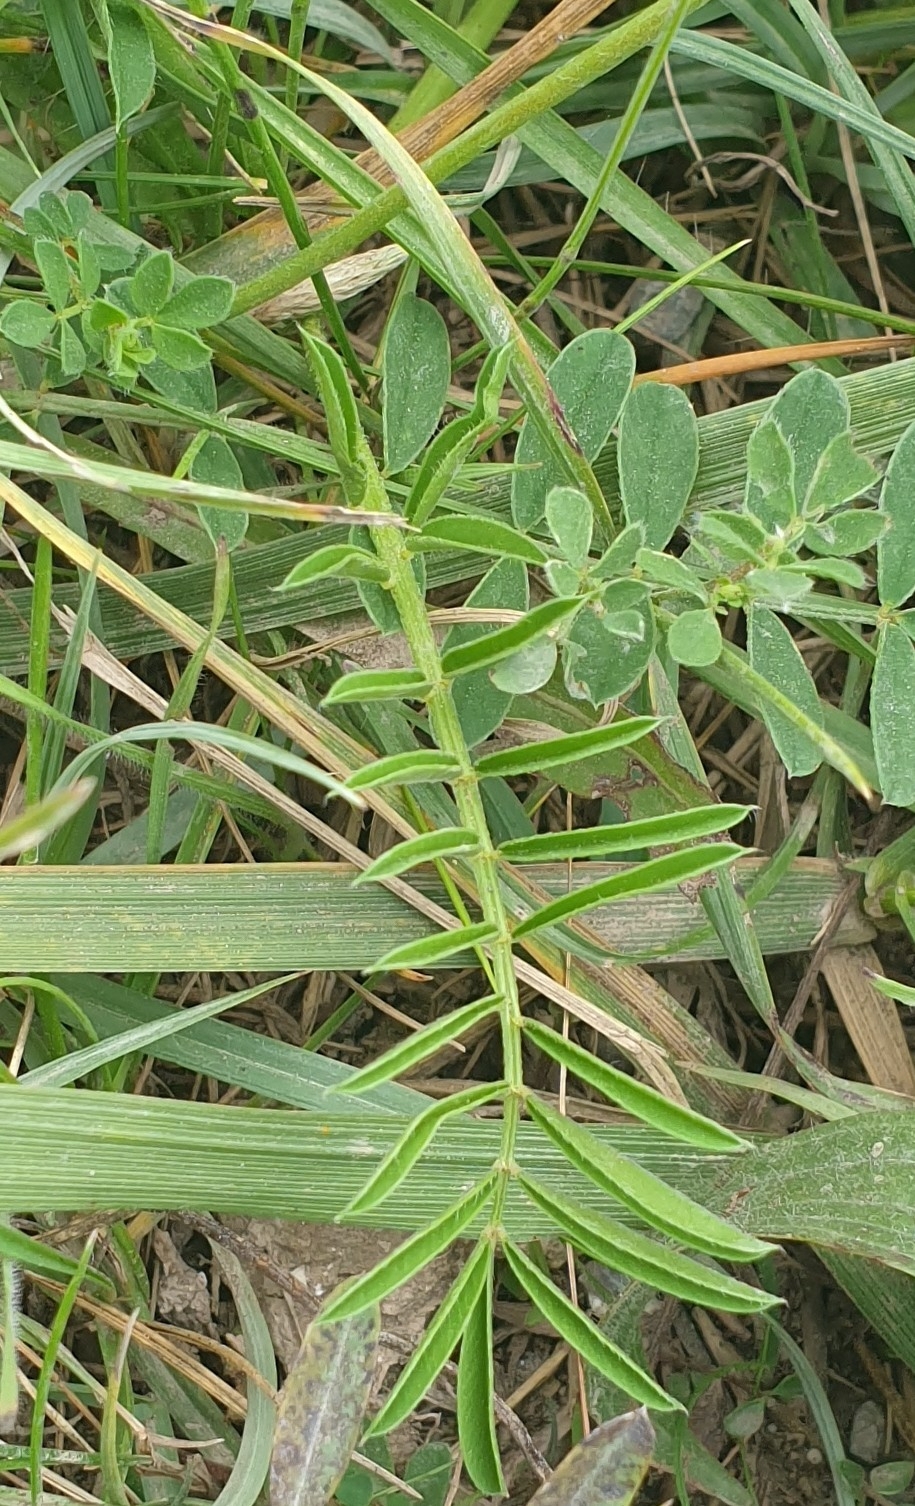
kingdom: Plantae
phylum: Tracheophyta
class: Magnoliopsida
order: Fabales
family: Fabaceae
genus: Onobrychis
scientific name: Onobrychis viciifolia
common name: Sainfoin
